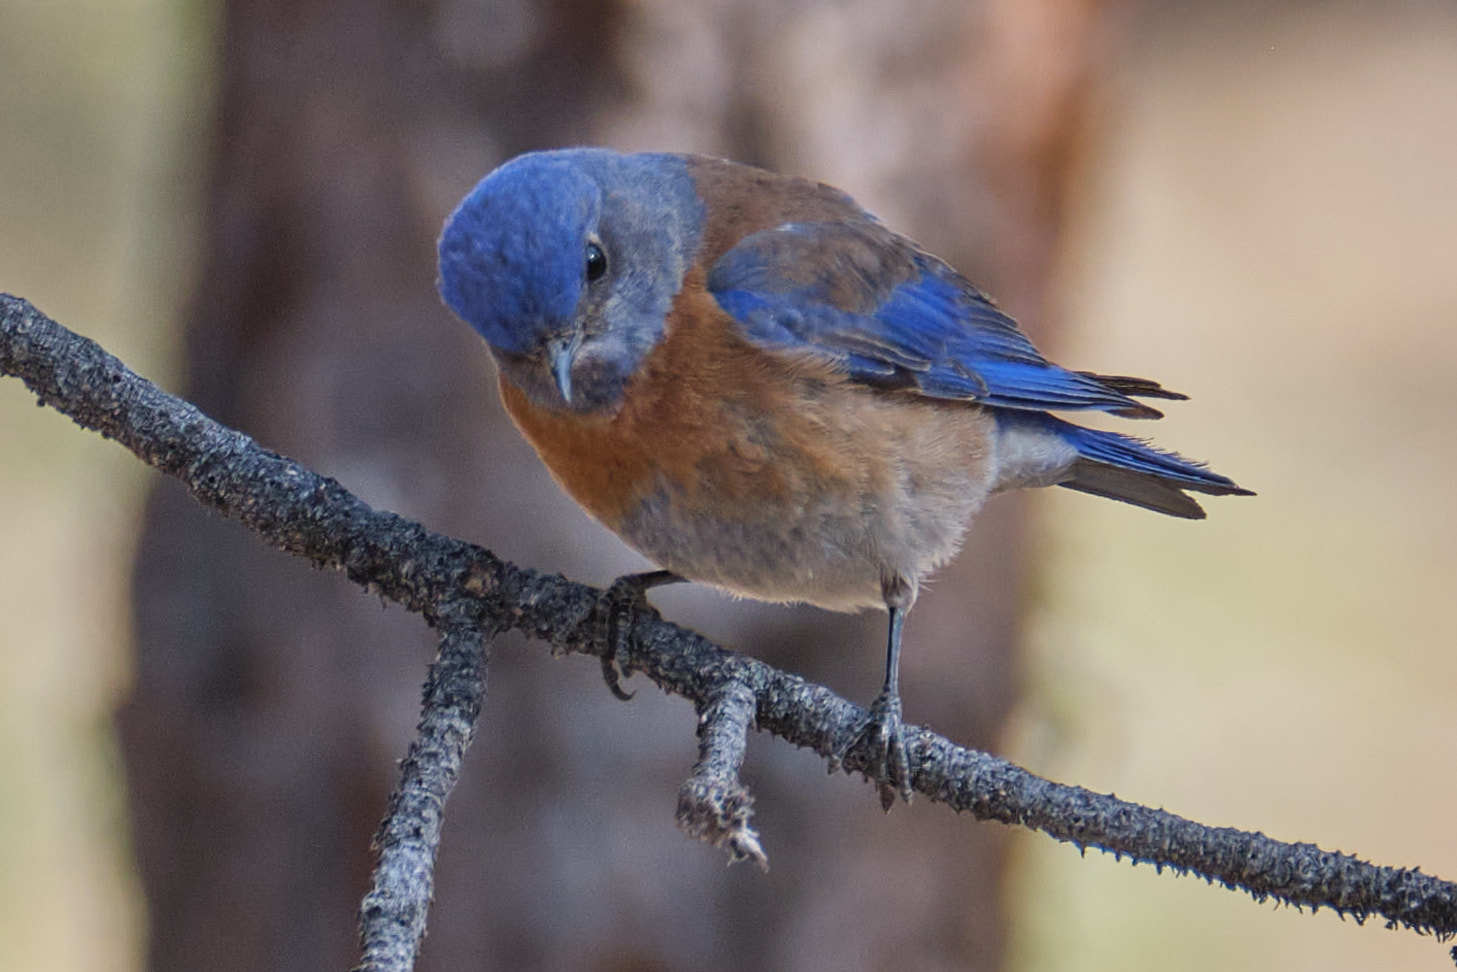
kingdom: Animalia
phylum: Chordata
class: Aves
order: Passeriformes
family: Turdidae
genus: Sialia
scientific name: Sialia mexicana
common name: Western bluebird
